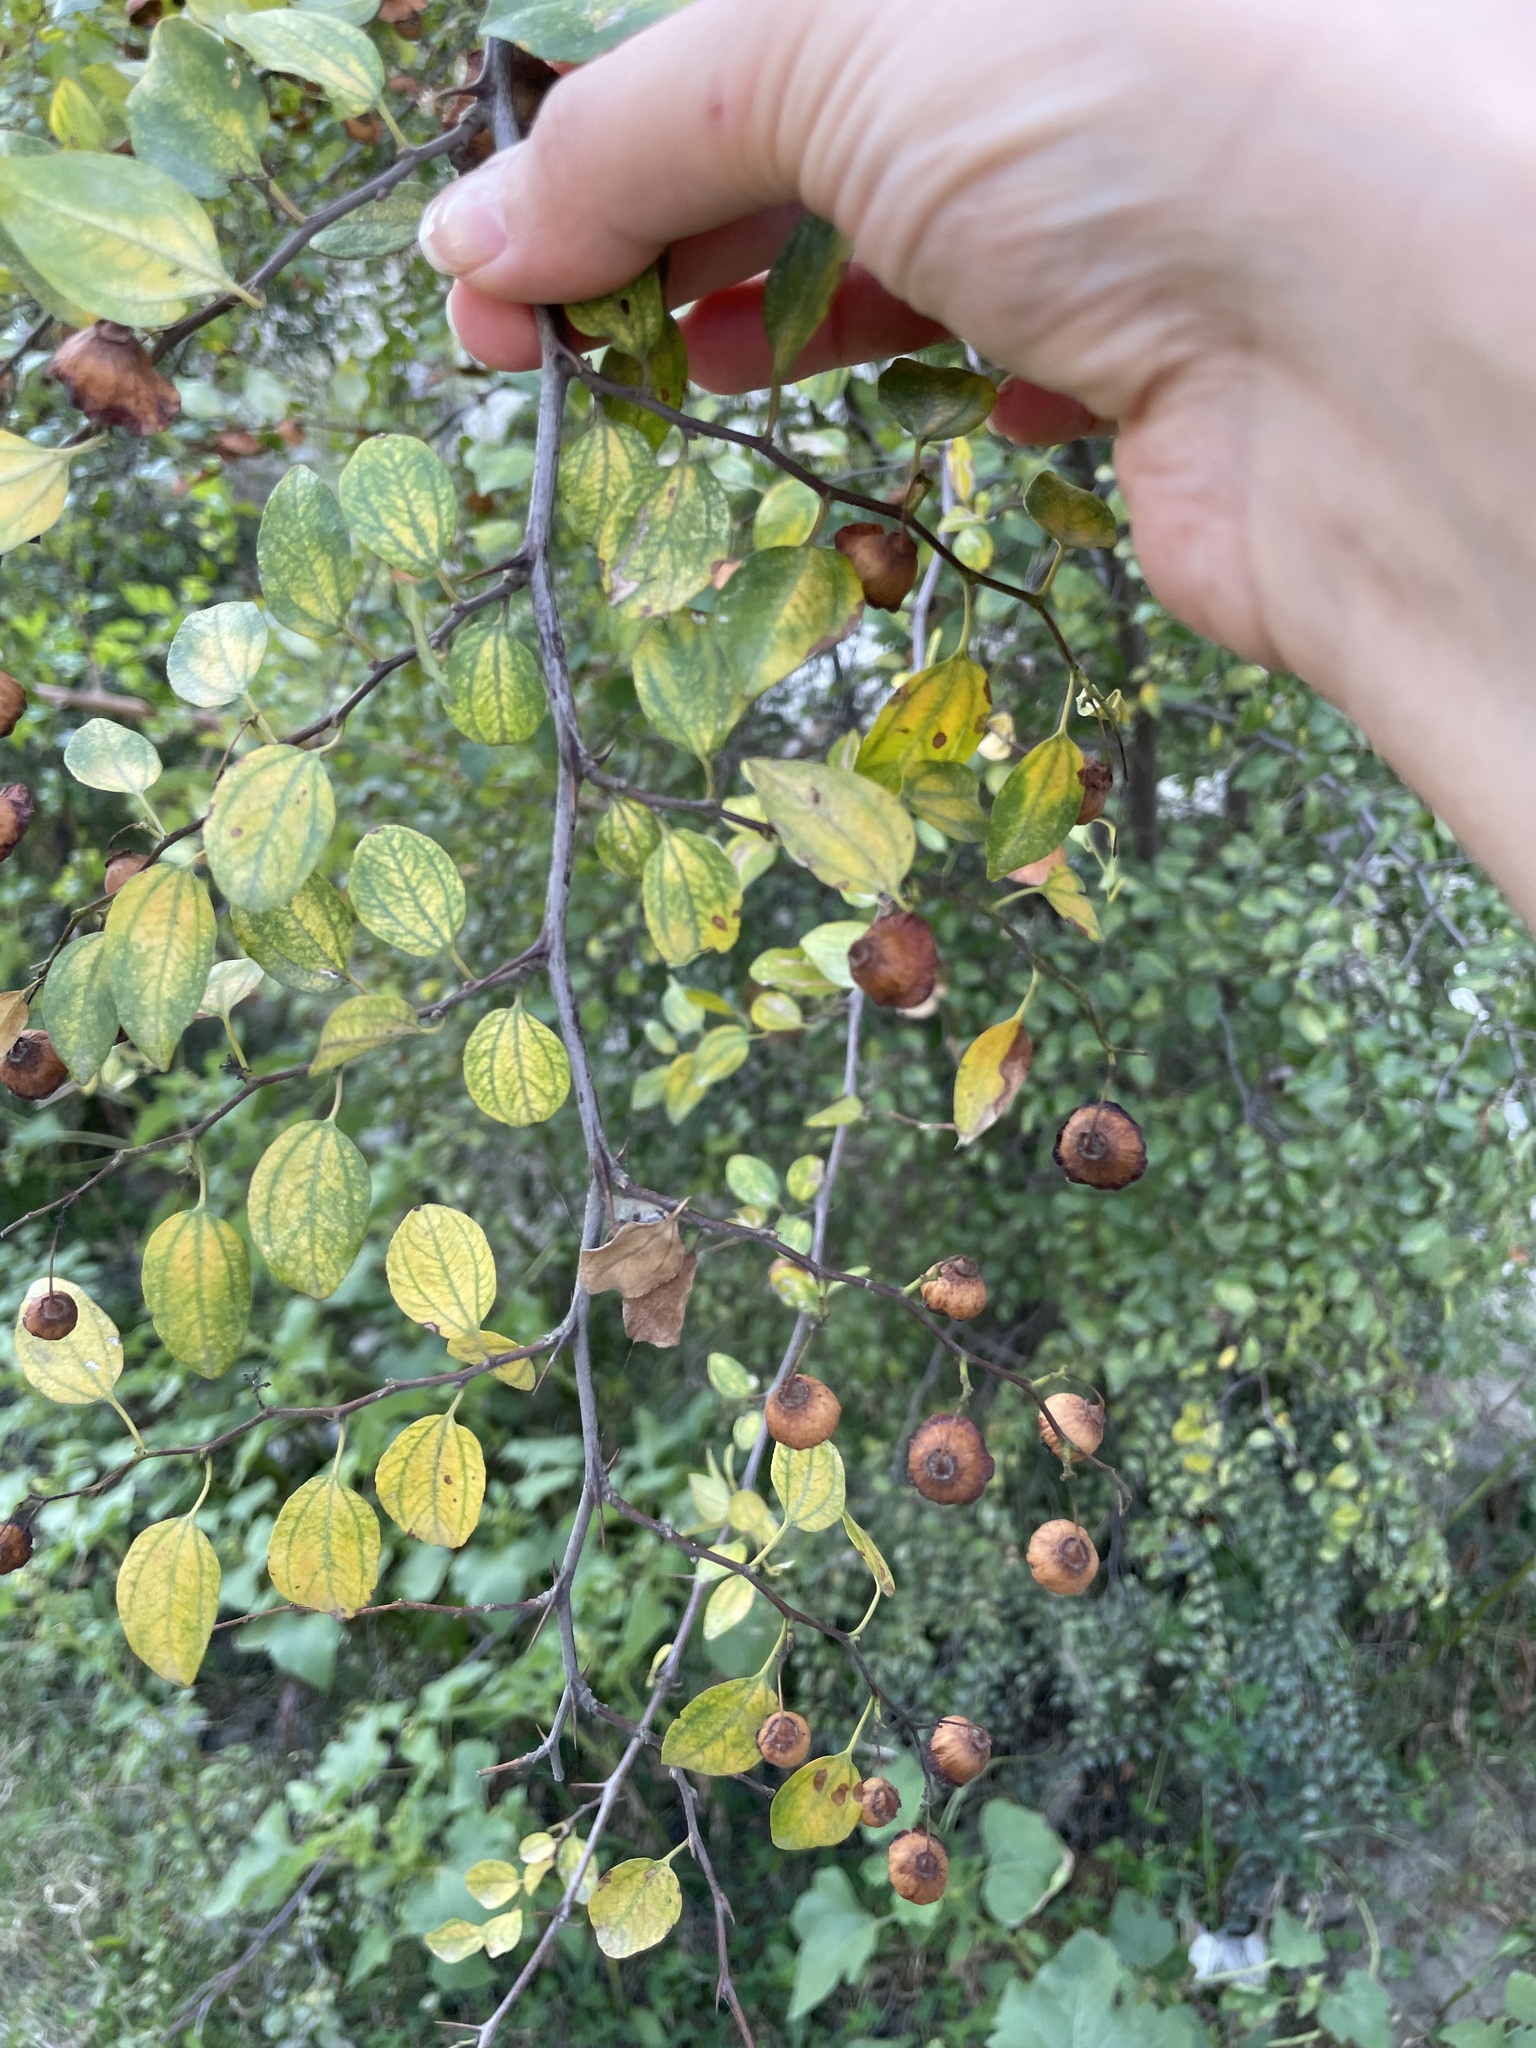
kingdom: Plantae
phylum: Tracheophyta
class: Magnoliopsida
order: Rosales
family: Rhamnaceae
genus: Paliurus
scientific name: Paliurus spina-christi
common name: Jeruselem thorn
